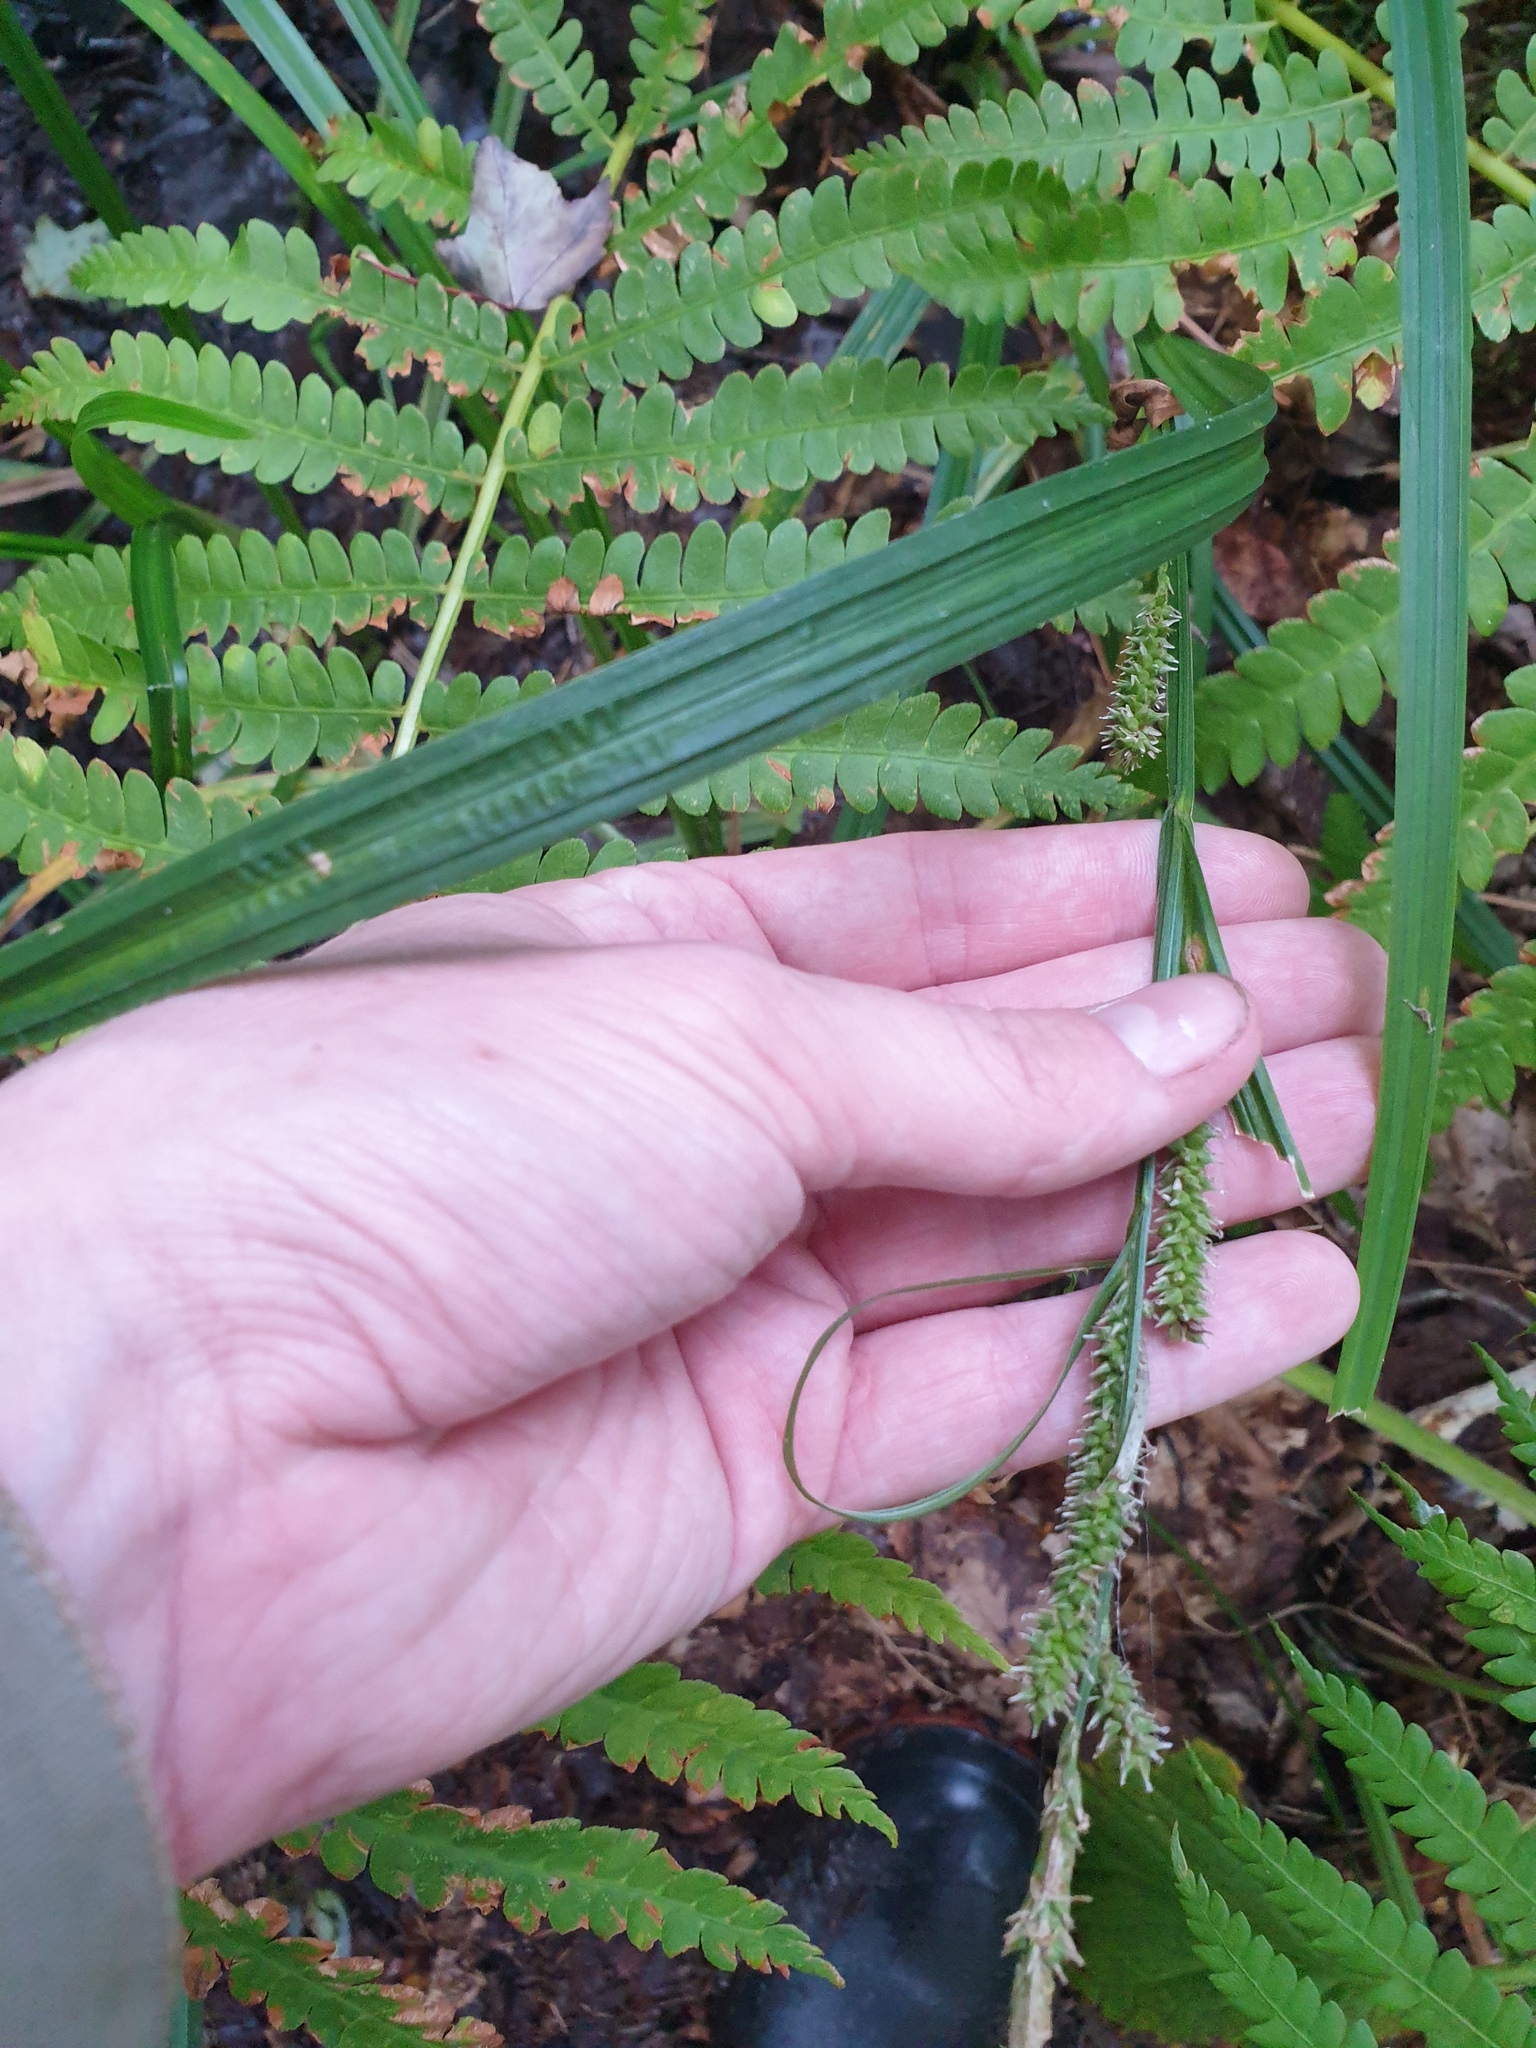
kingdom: Plantae
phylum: Tracheophyta
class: Liliopsida
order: Poales
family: Cyperaceae
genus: Carex
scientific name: Carex scabrata
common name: Eastern rough sedge
